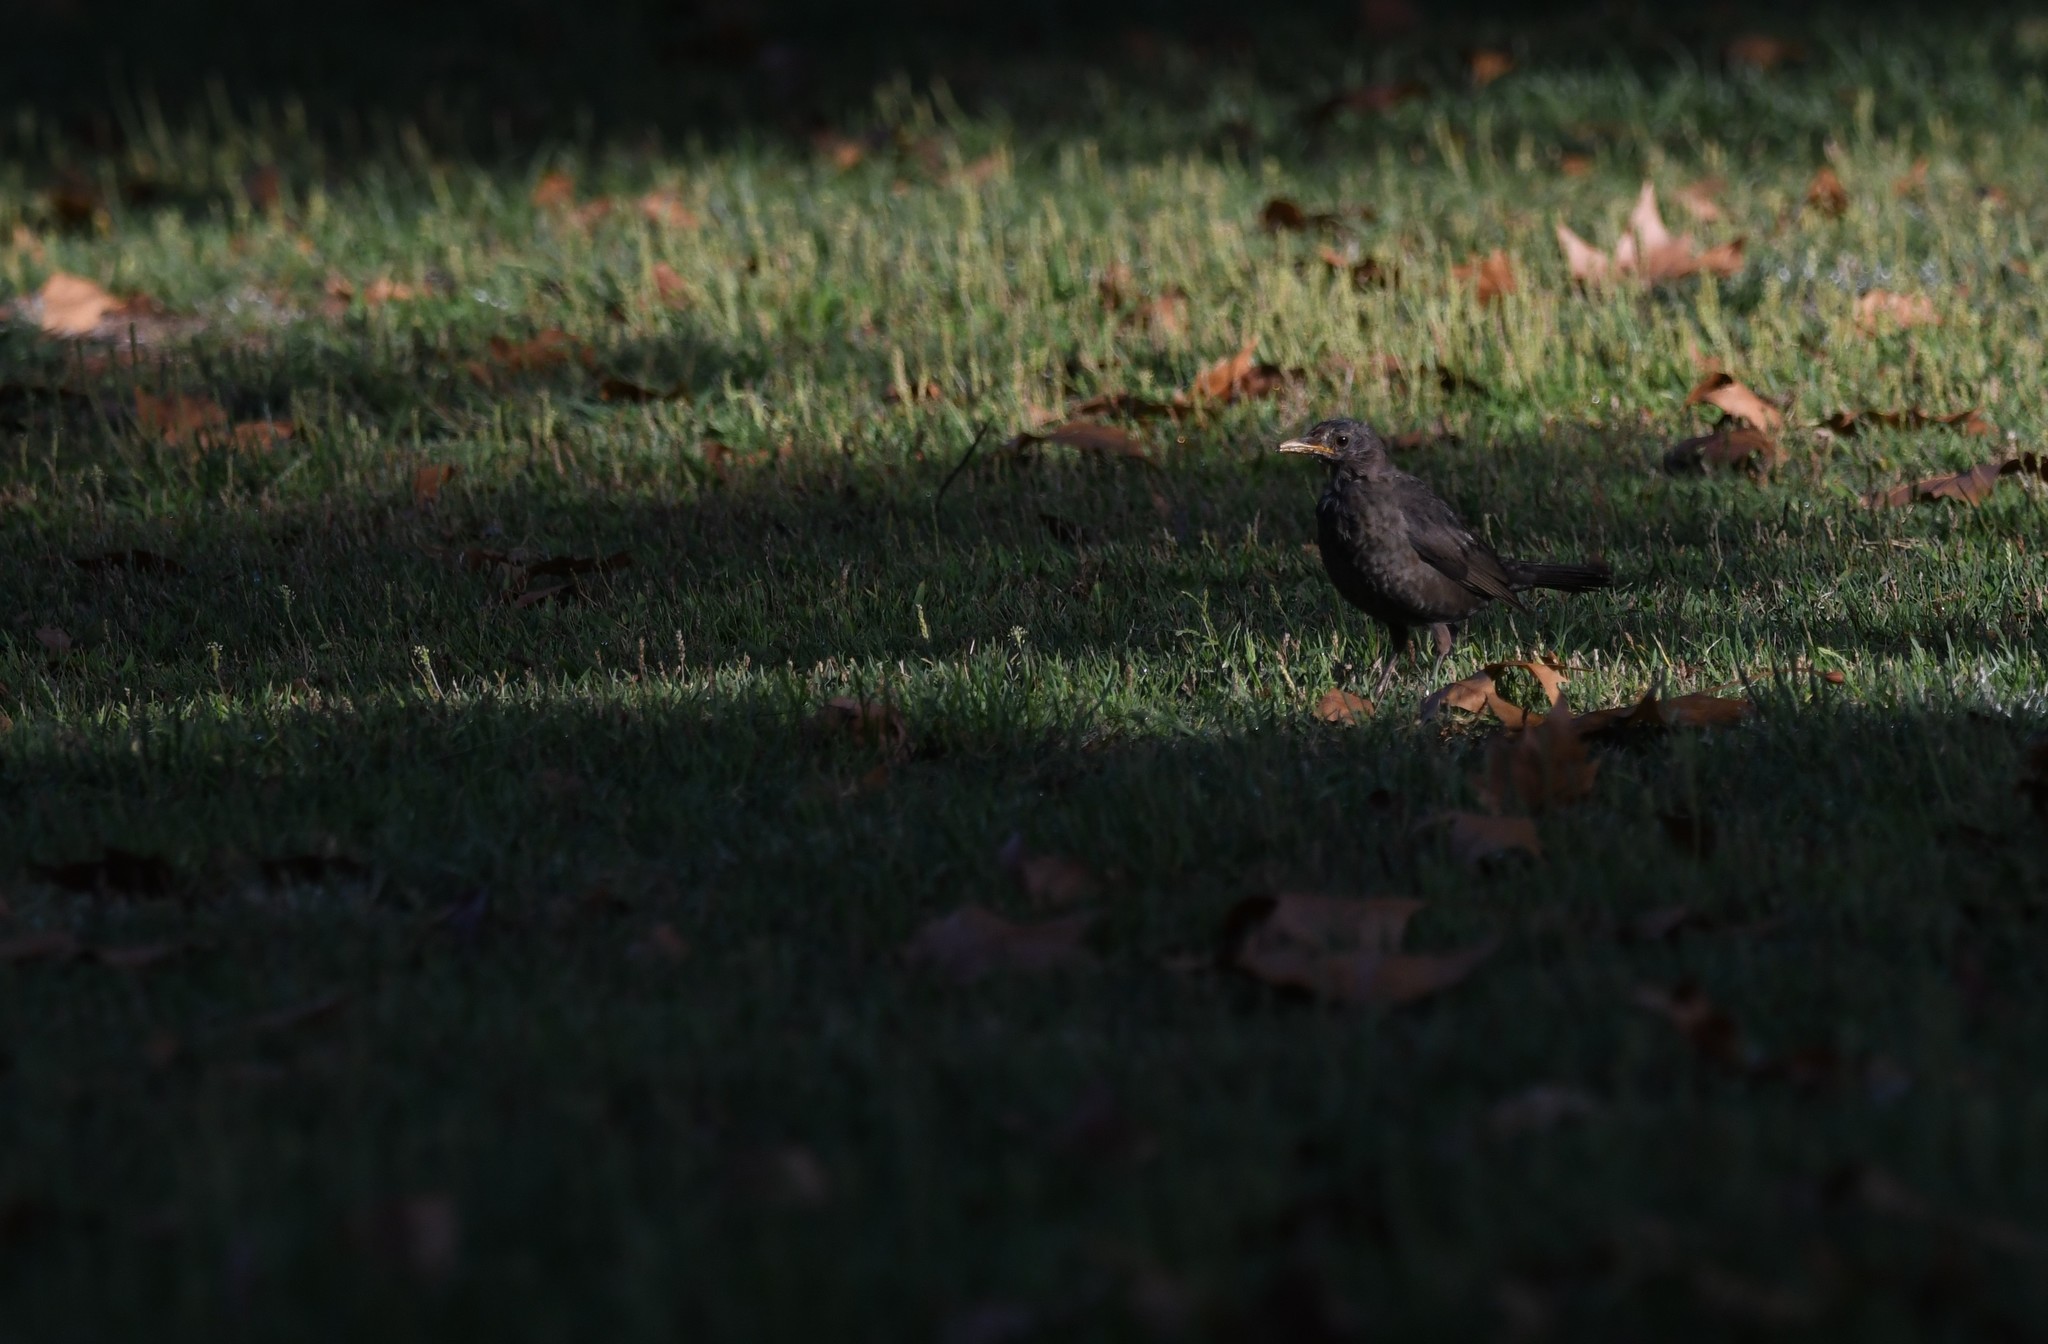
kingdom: Animalia
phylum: Chordata
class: Aves
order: Passeriformes
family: Turdidae
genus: Turdus
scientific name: Turdus merula
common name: Common blackbird
